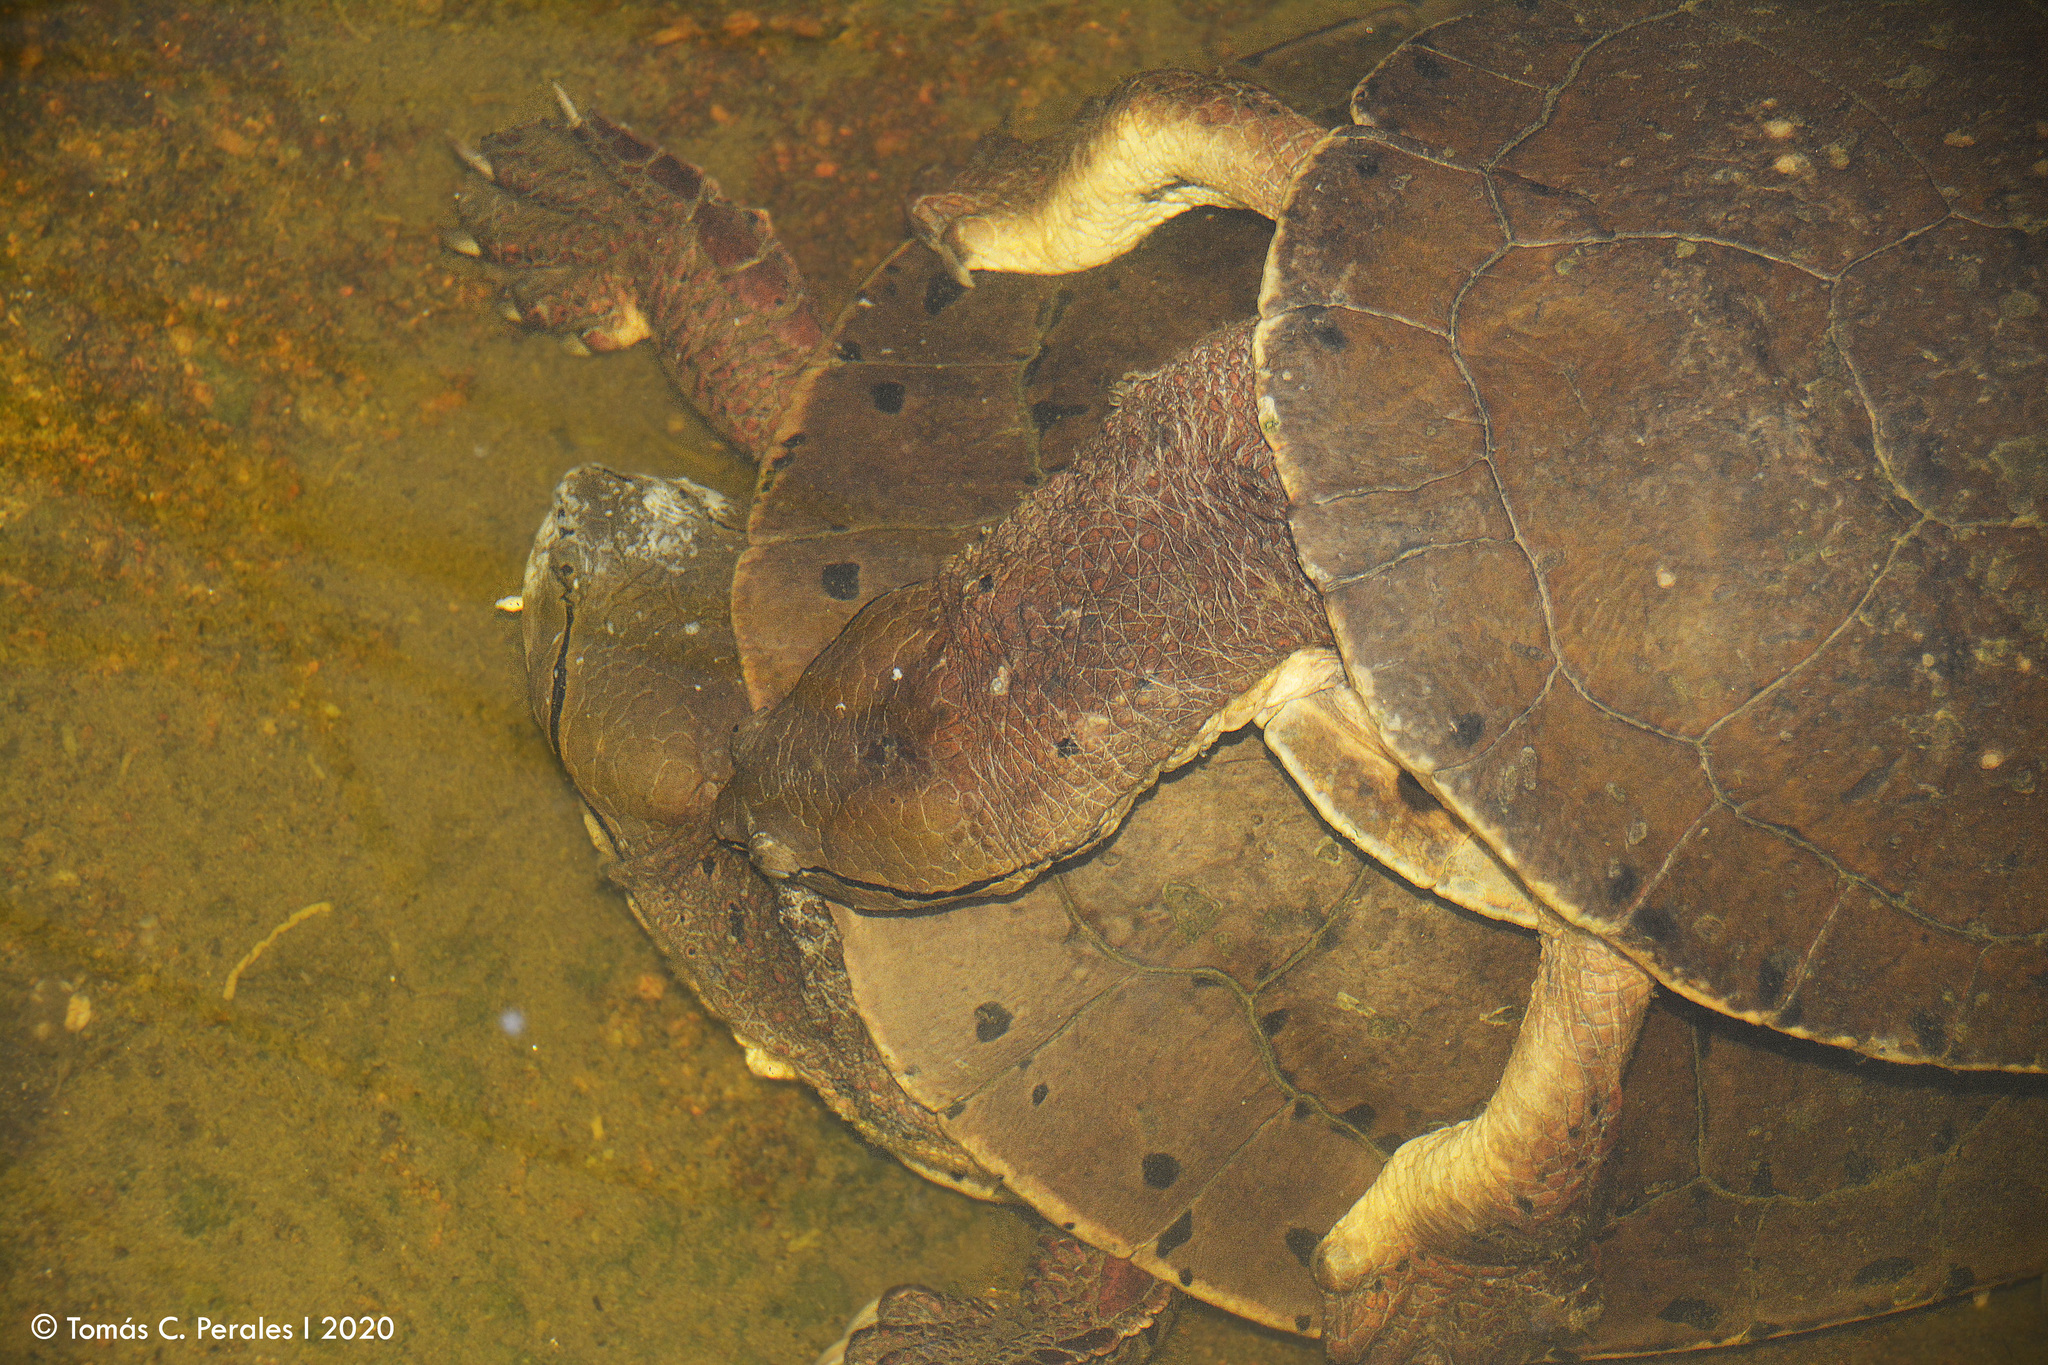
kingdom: Animalia
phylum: Chordata
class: Testudines
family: Chelidae
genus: Phrynops
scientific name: Phrynops hilarii
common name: Side-necked turtle of saint hillaire
